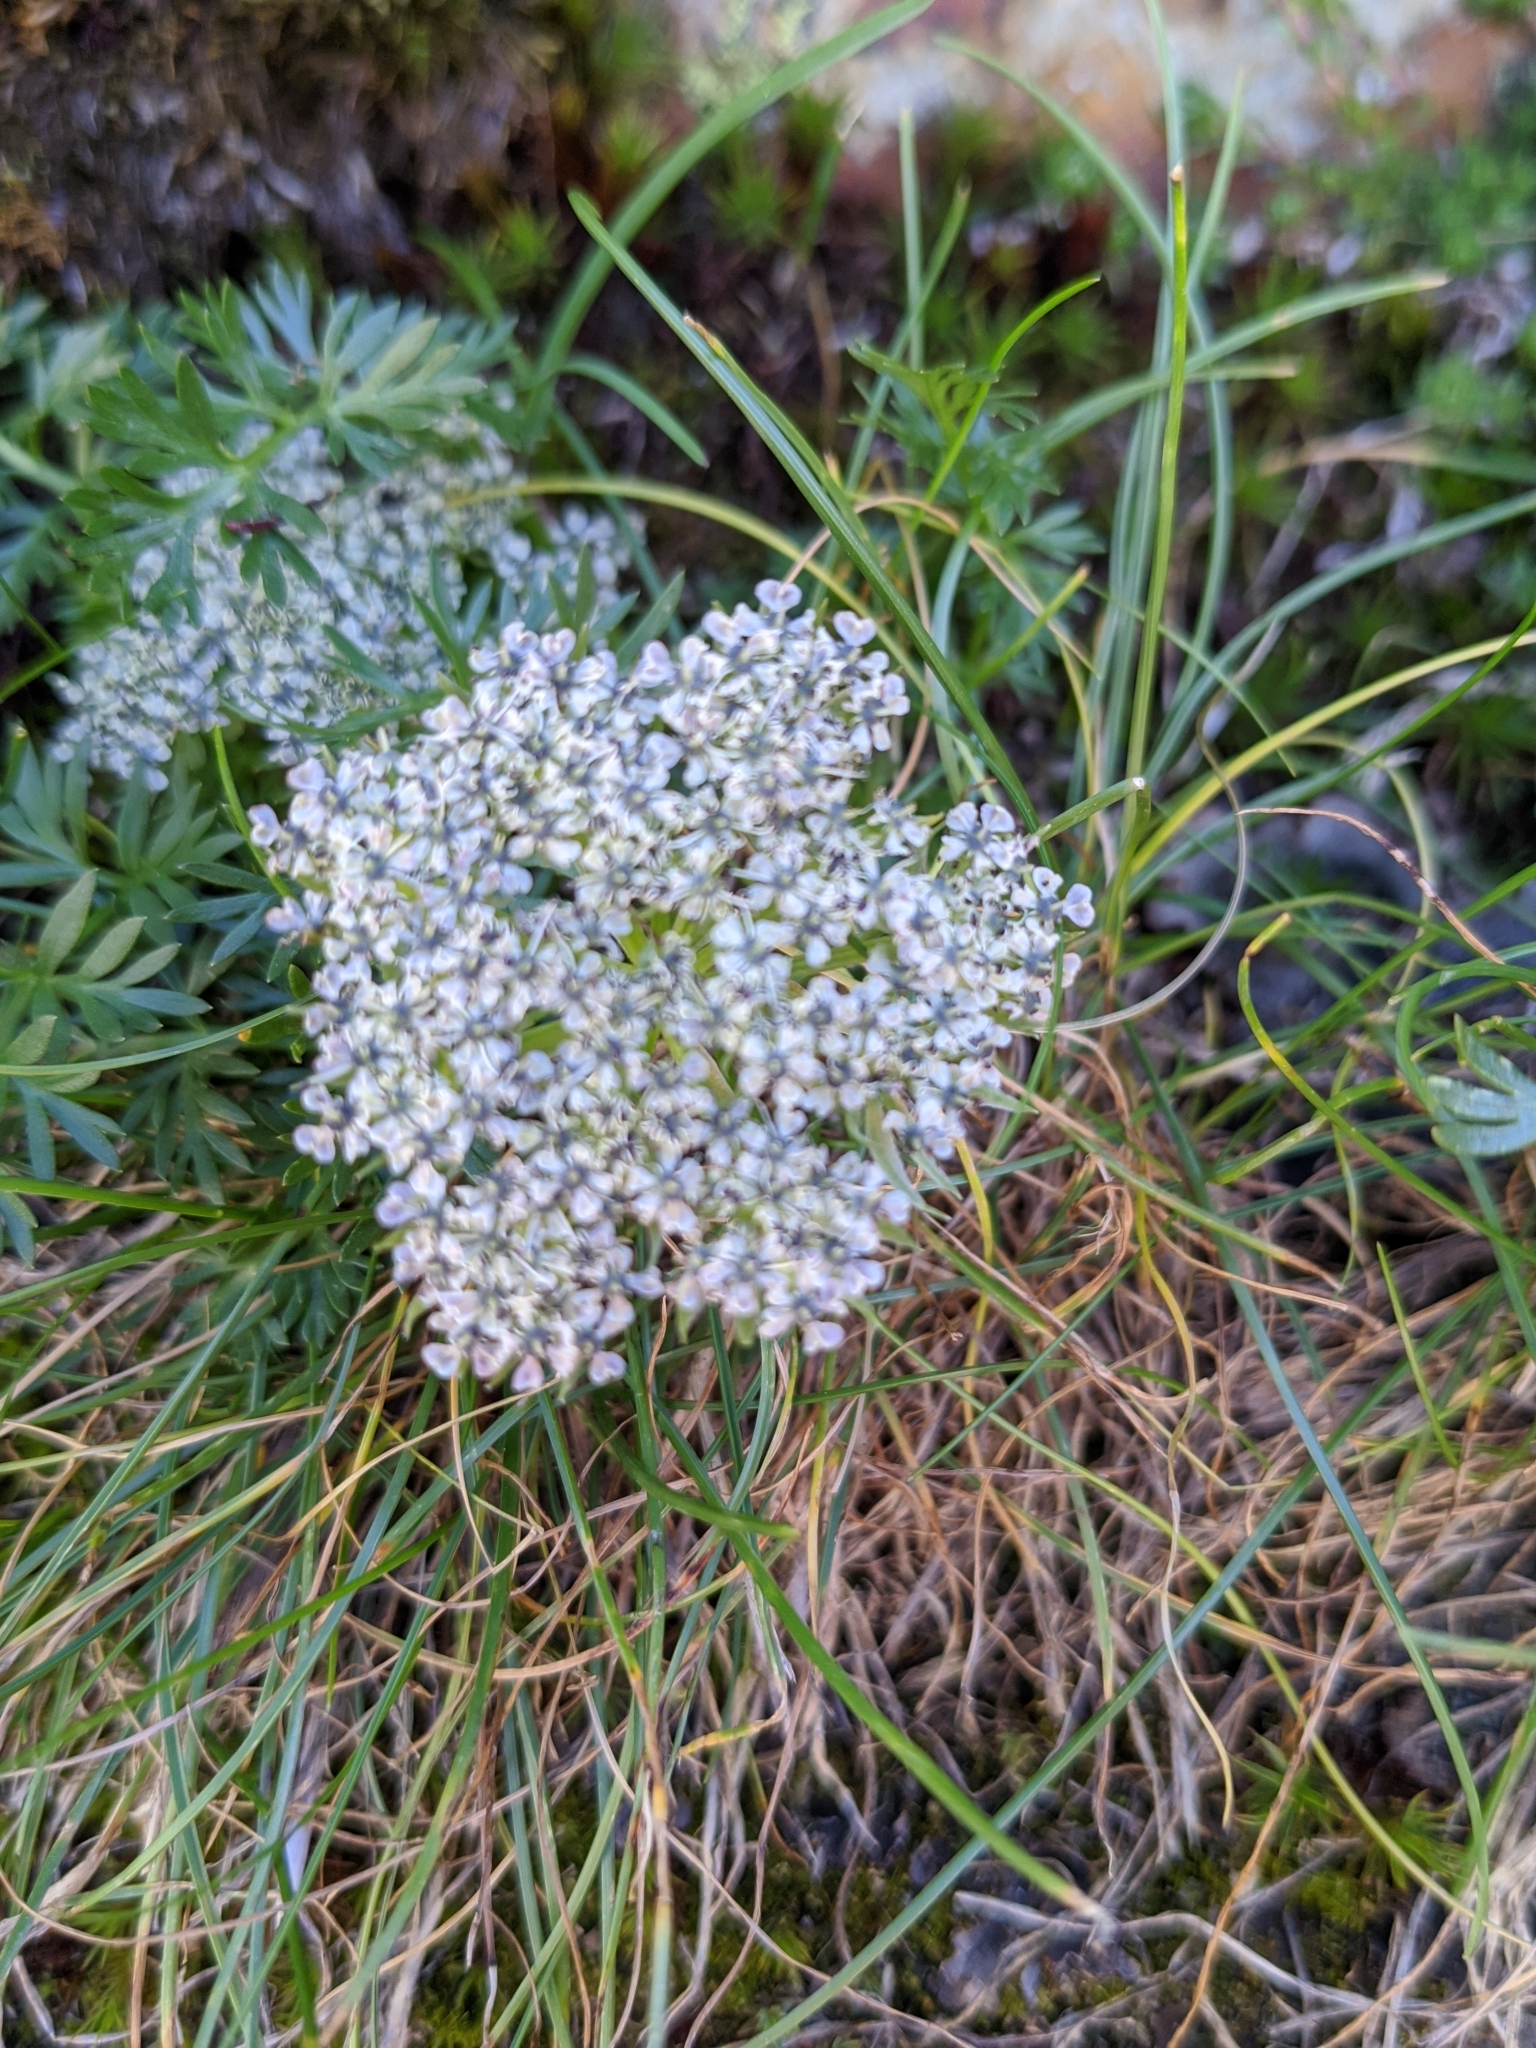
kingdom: Plantae
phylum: Tracheophyta
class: Magnoliopsida
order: Apiales
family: Apiaceae
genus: Pachypleurum
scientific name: Pachypleurum mutellinoides
